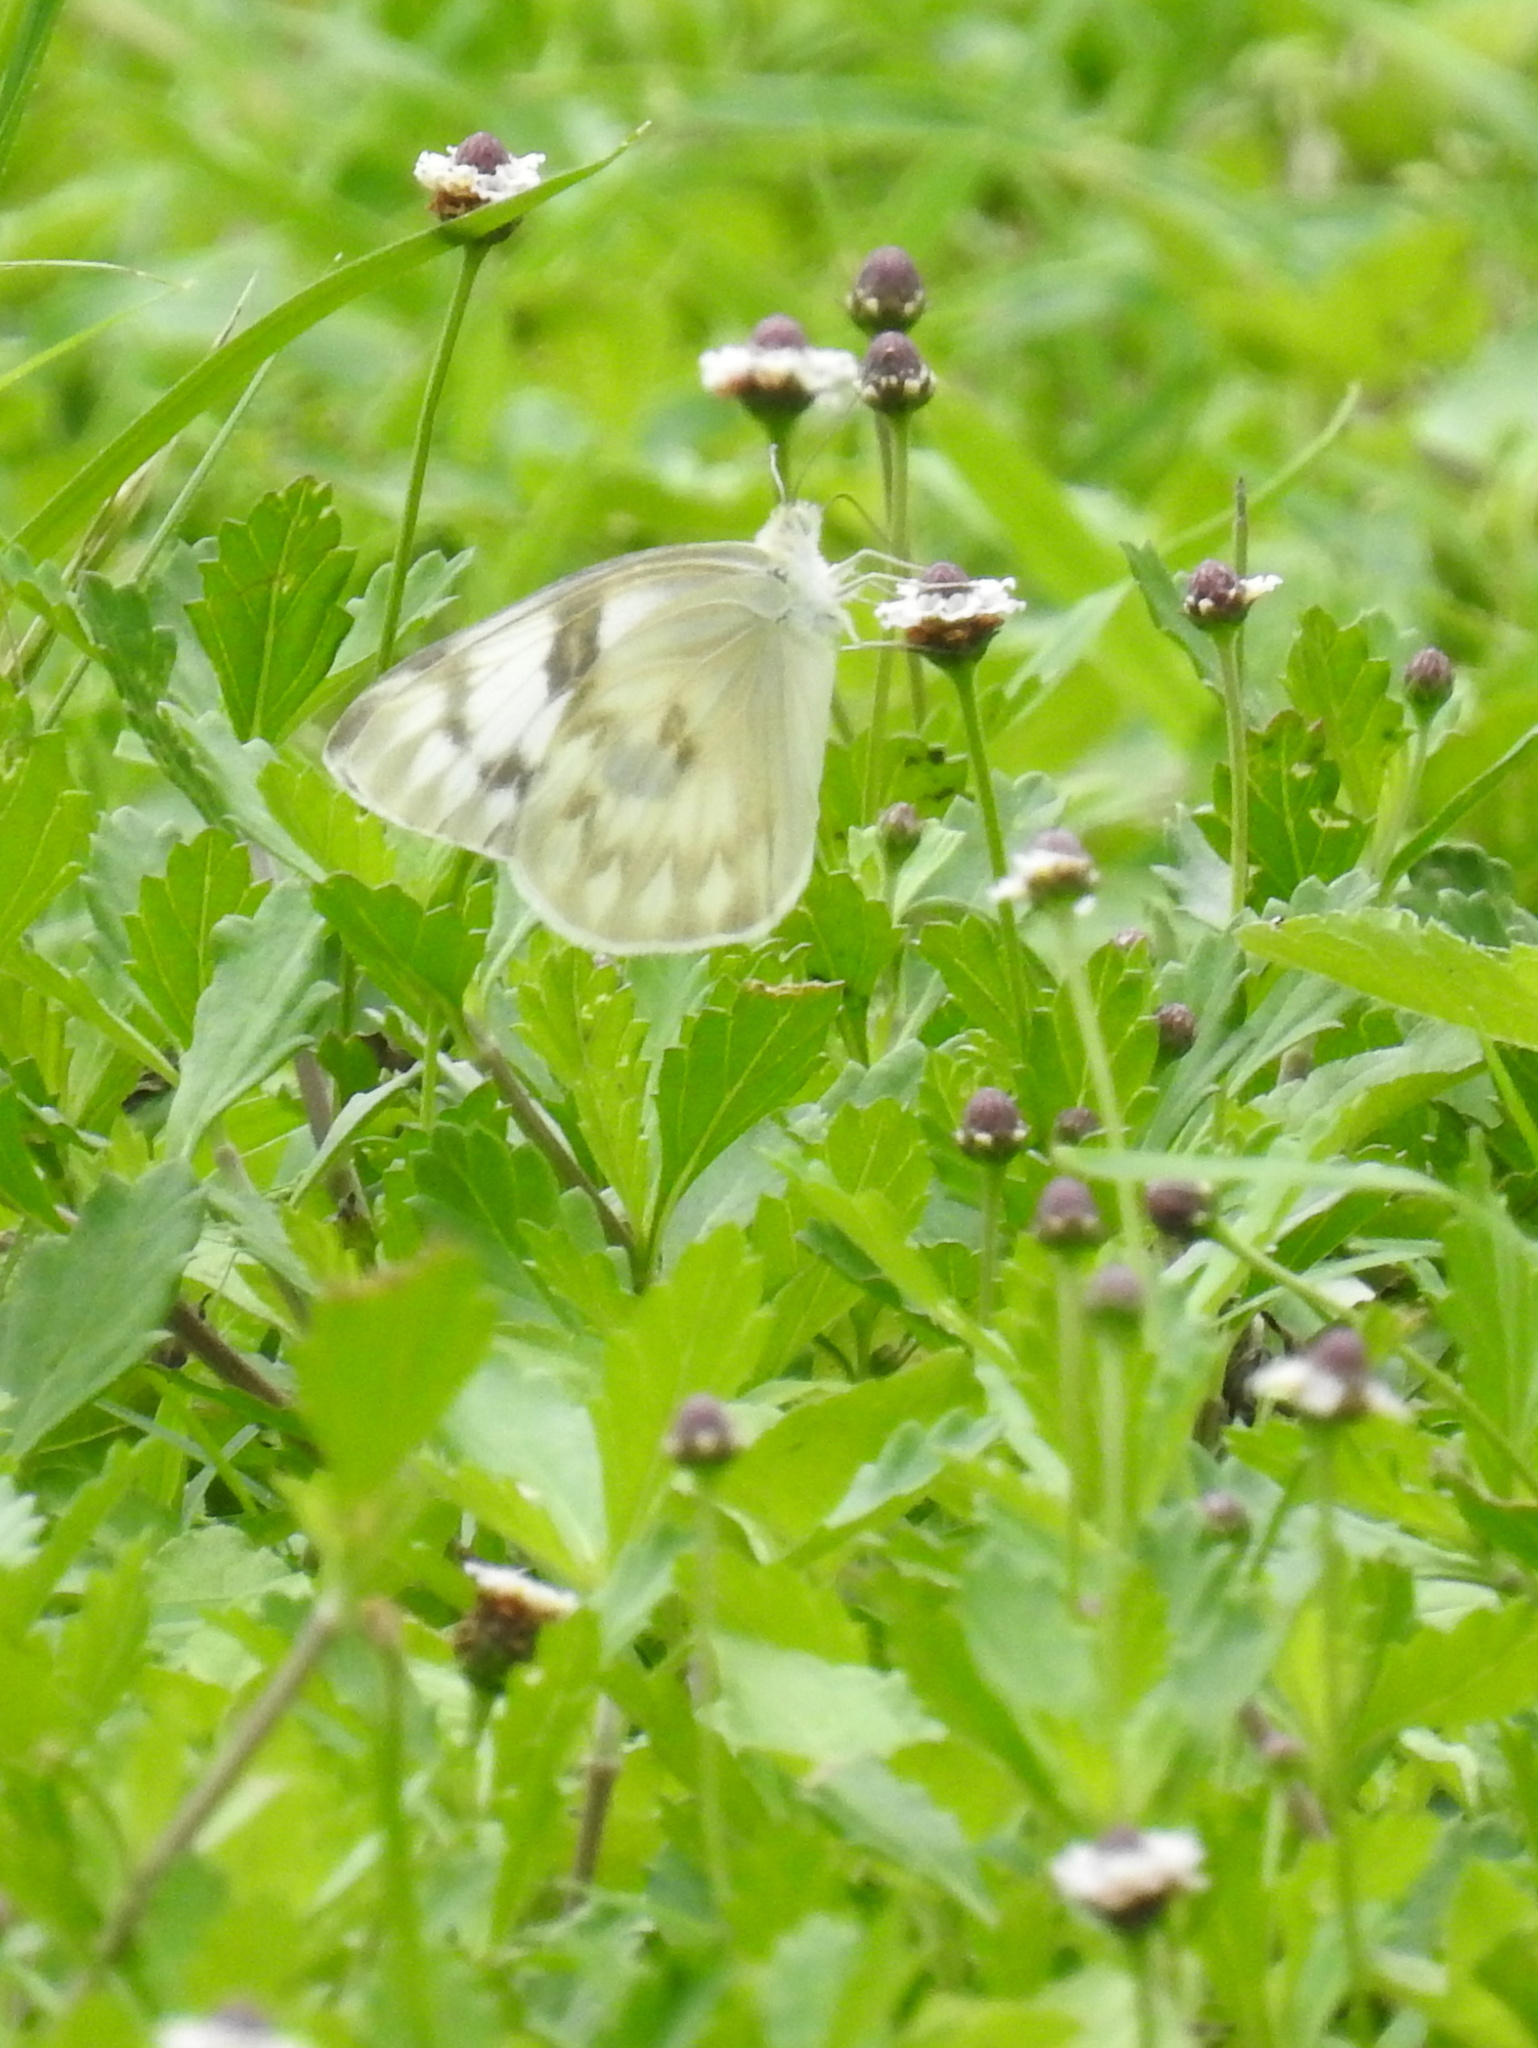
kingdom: Animalia
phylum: Arthropoda
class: Insecta
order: Lepidoptera
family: Pieridae
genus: Pontia
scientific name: Pontia protodice
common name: Checkered white
